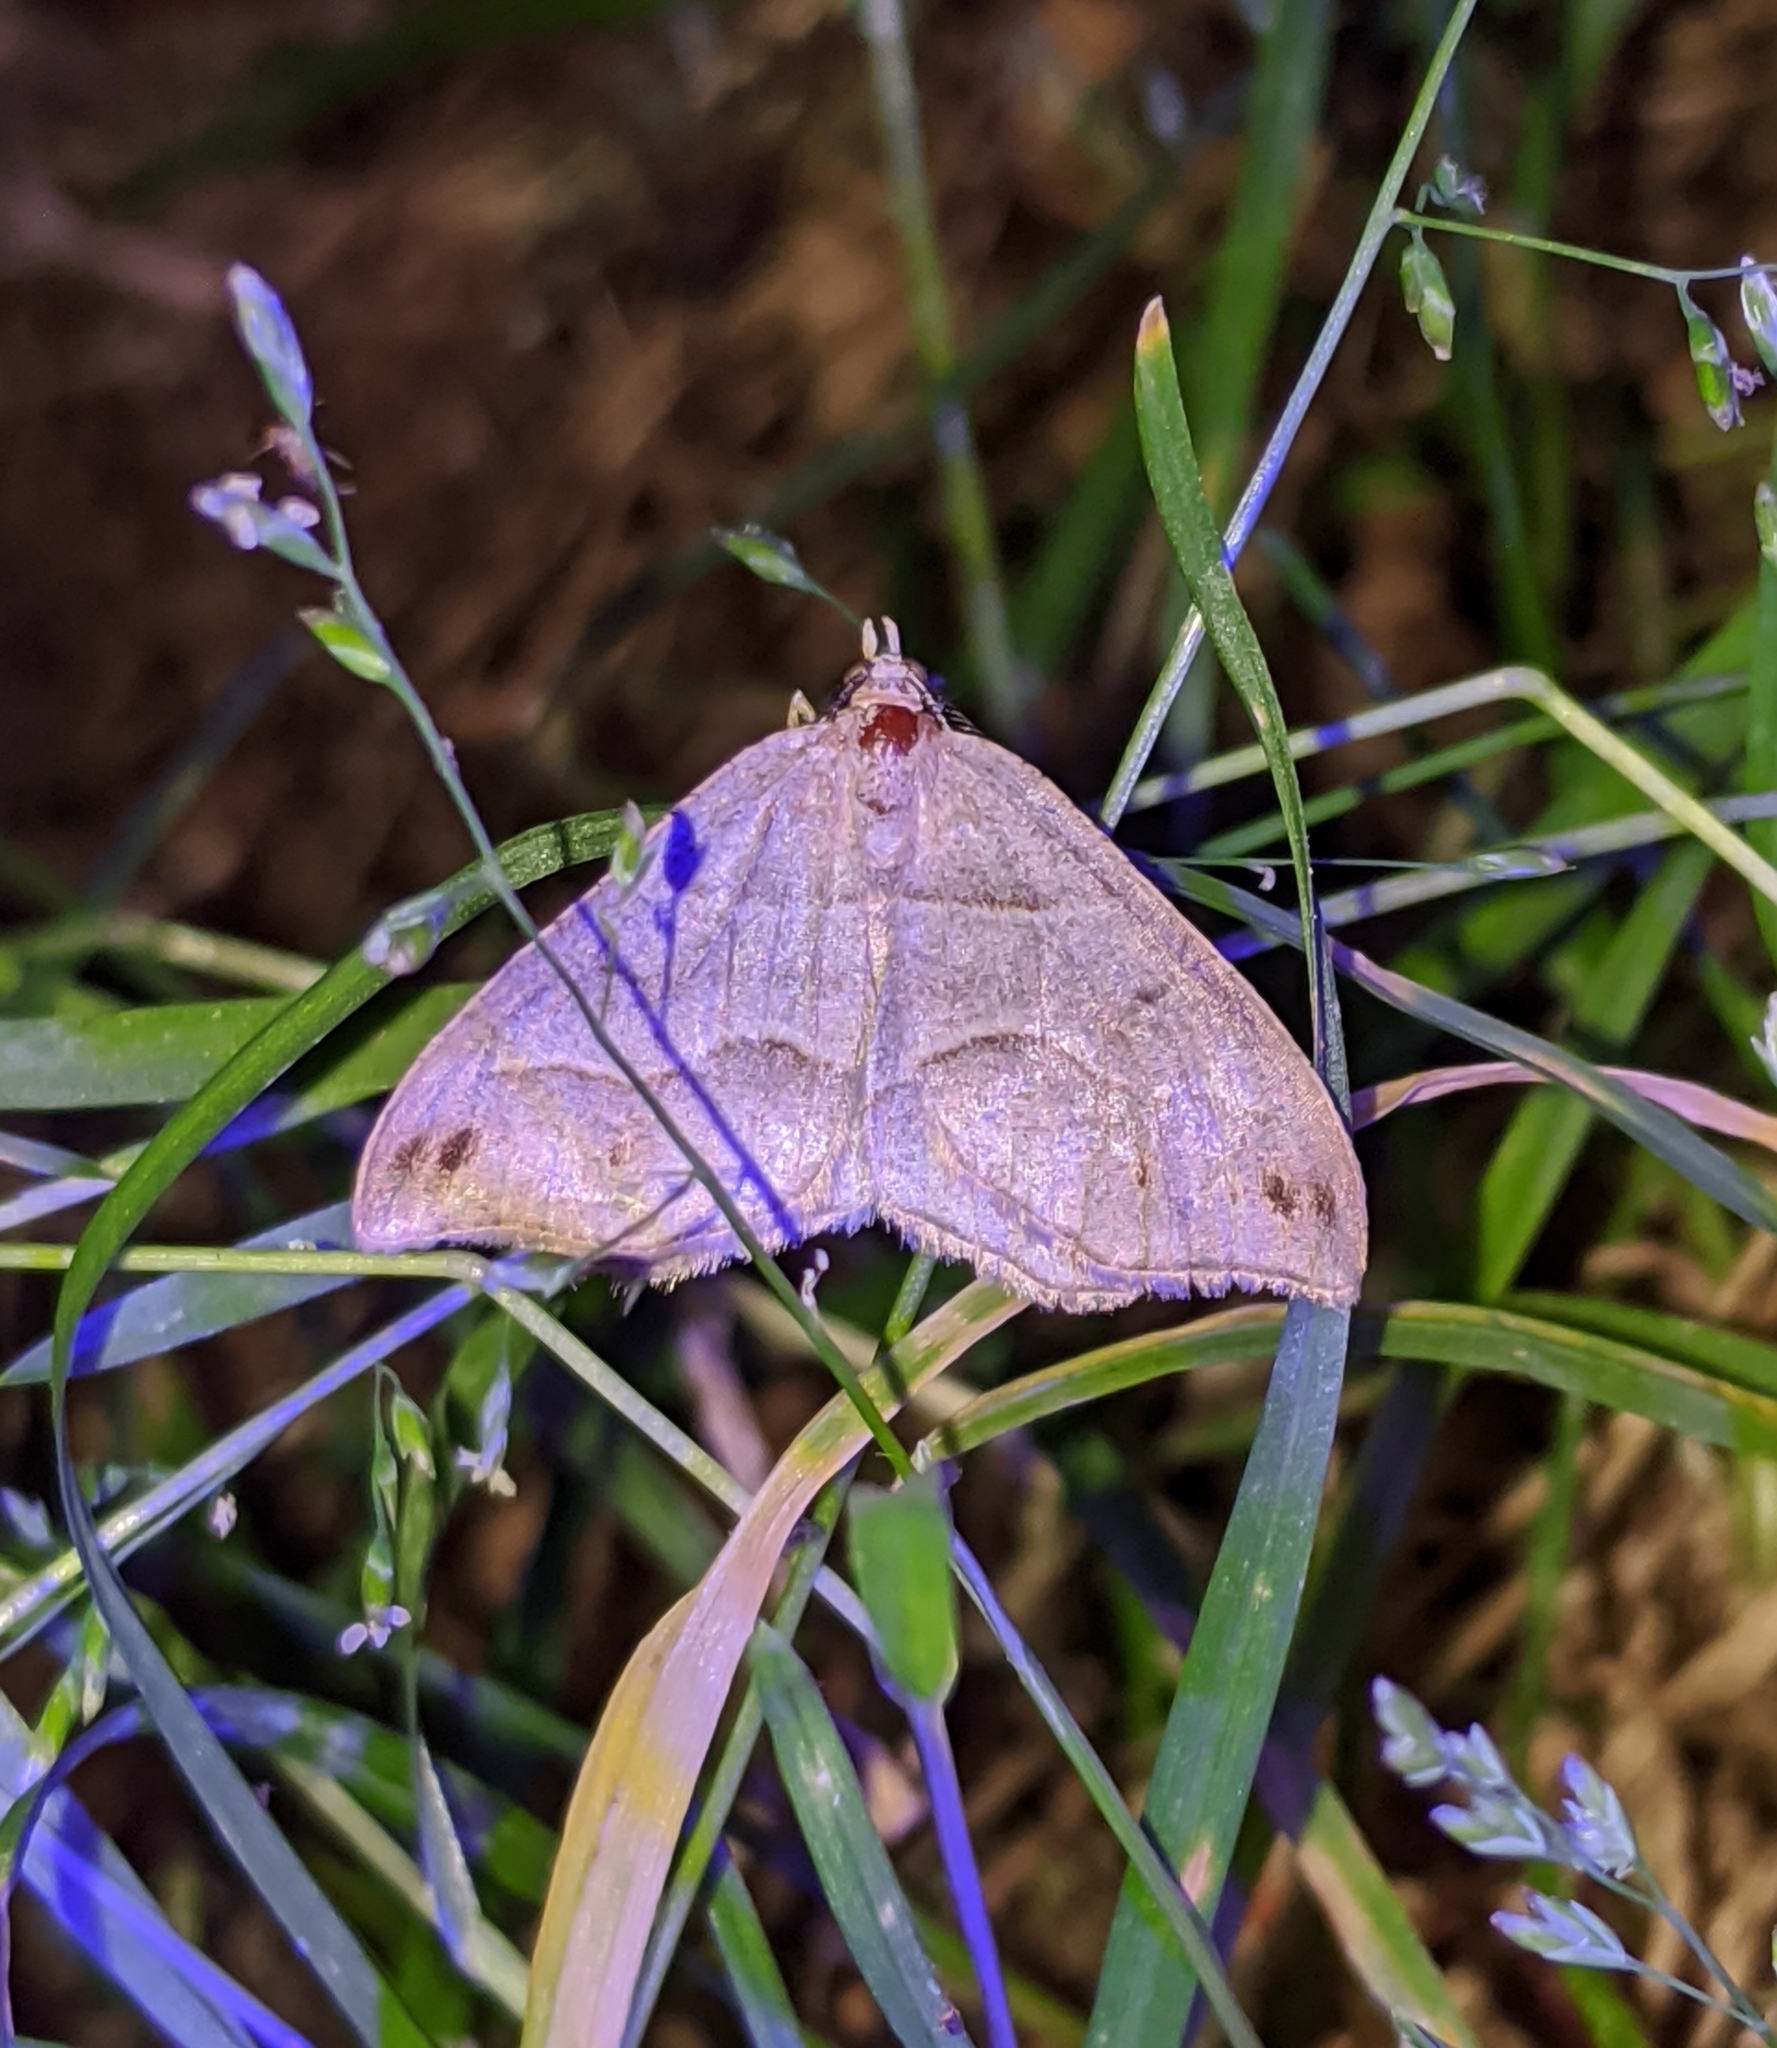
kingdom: Animalia
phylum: Arthropoda
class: Insecta
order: Lepidoptera
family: Geometridae
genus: Macaria
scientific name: Macaria lorquinaria
